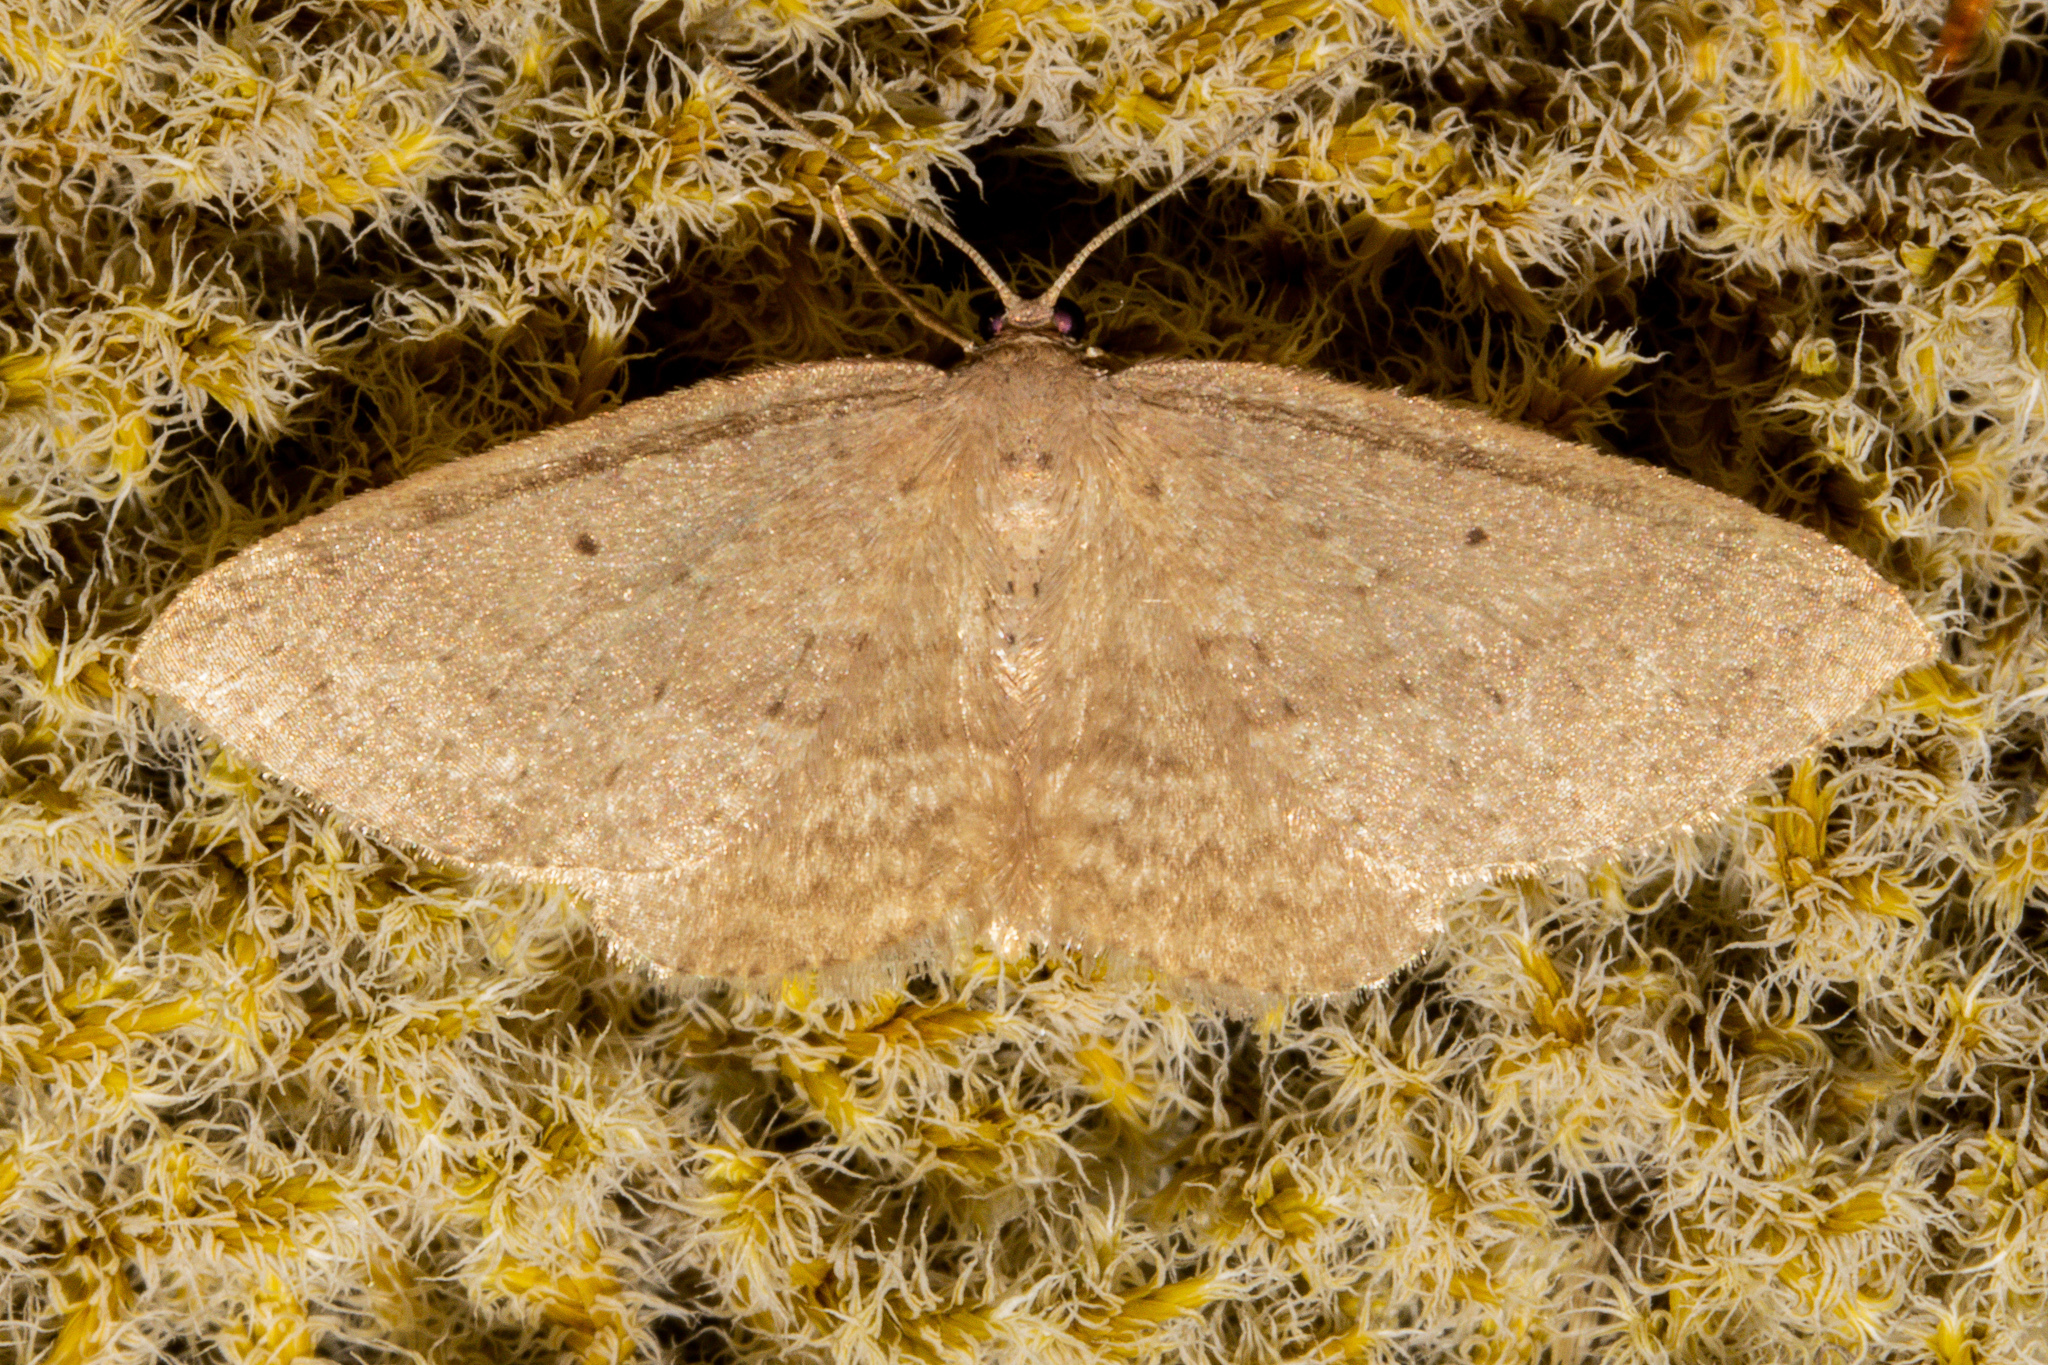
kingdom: Animalia
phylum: Arthropoda
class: Insecta
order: Lepidoptera
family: Geometridae
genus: Poecilasthena
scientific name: Poecilasthena schistaria
